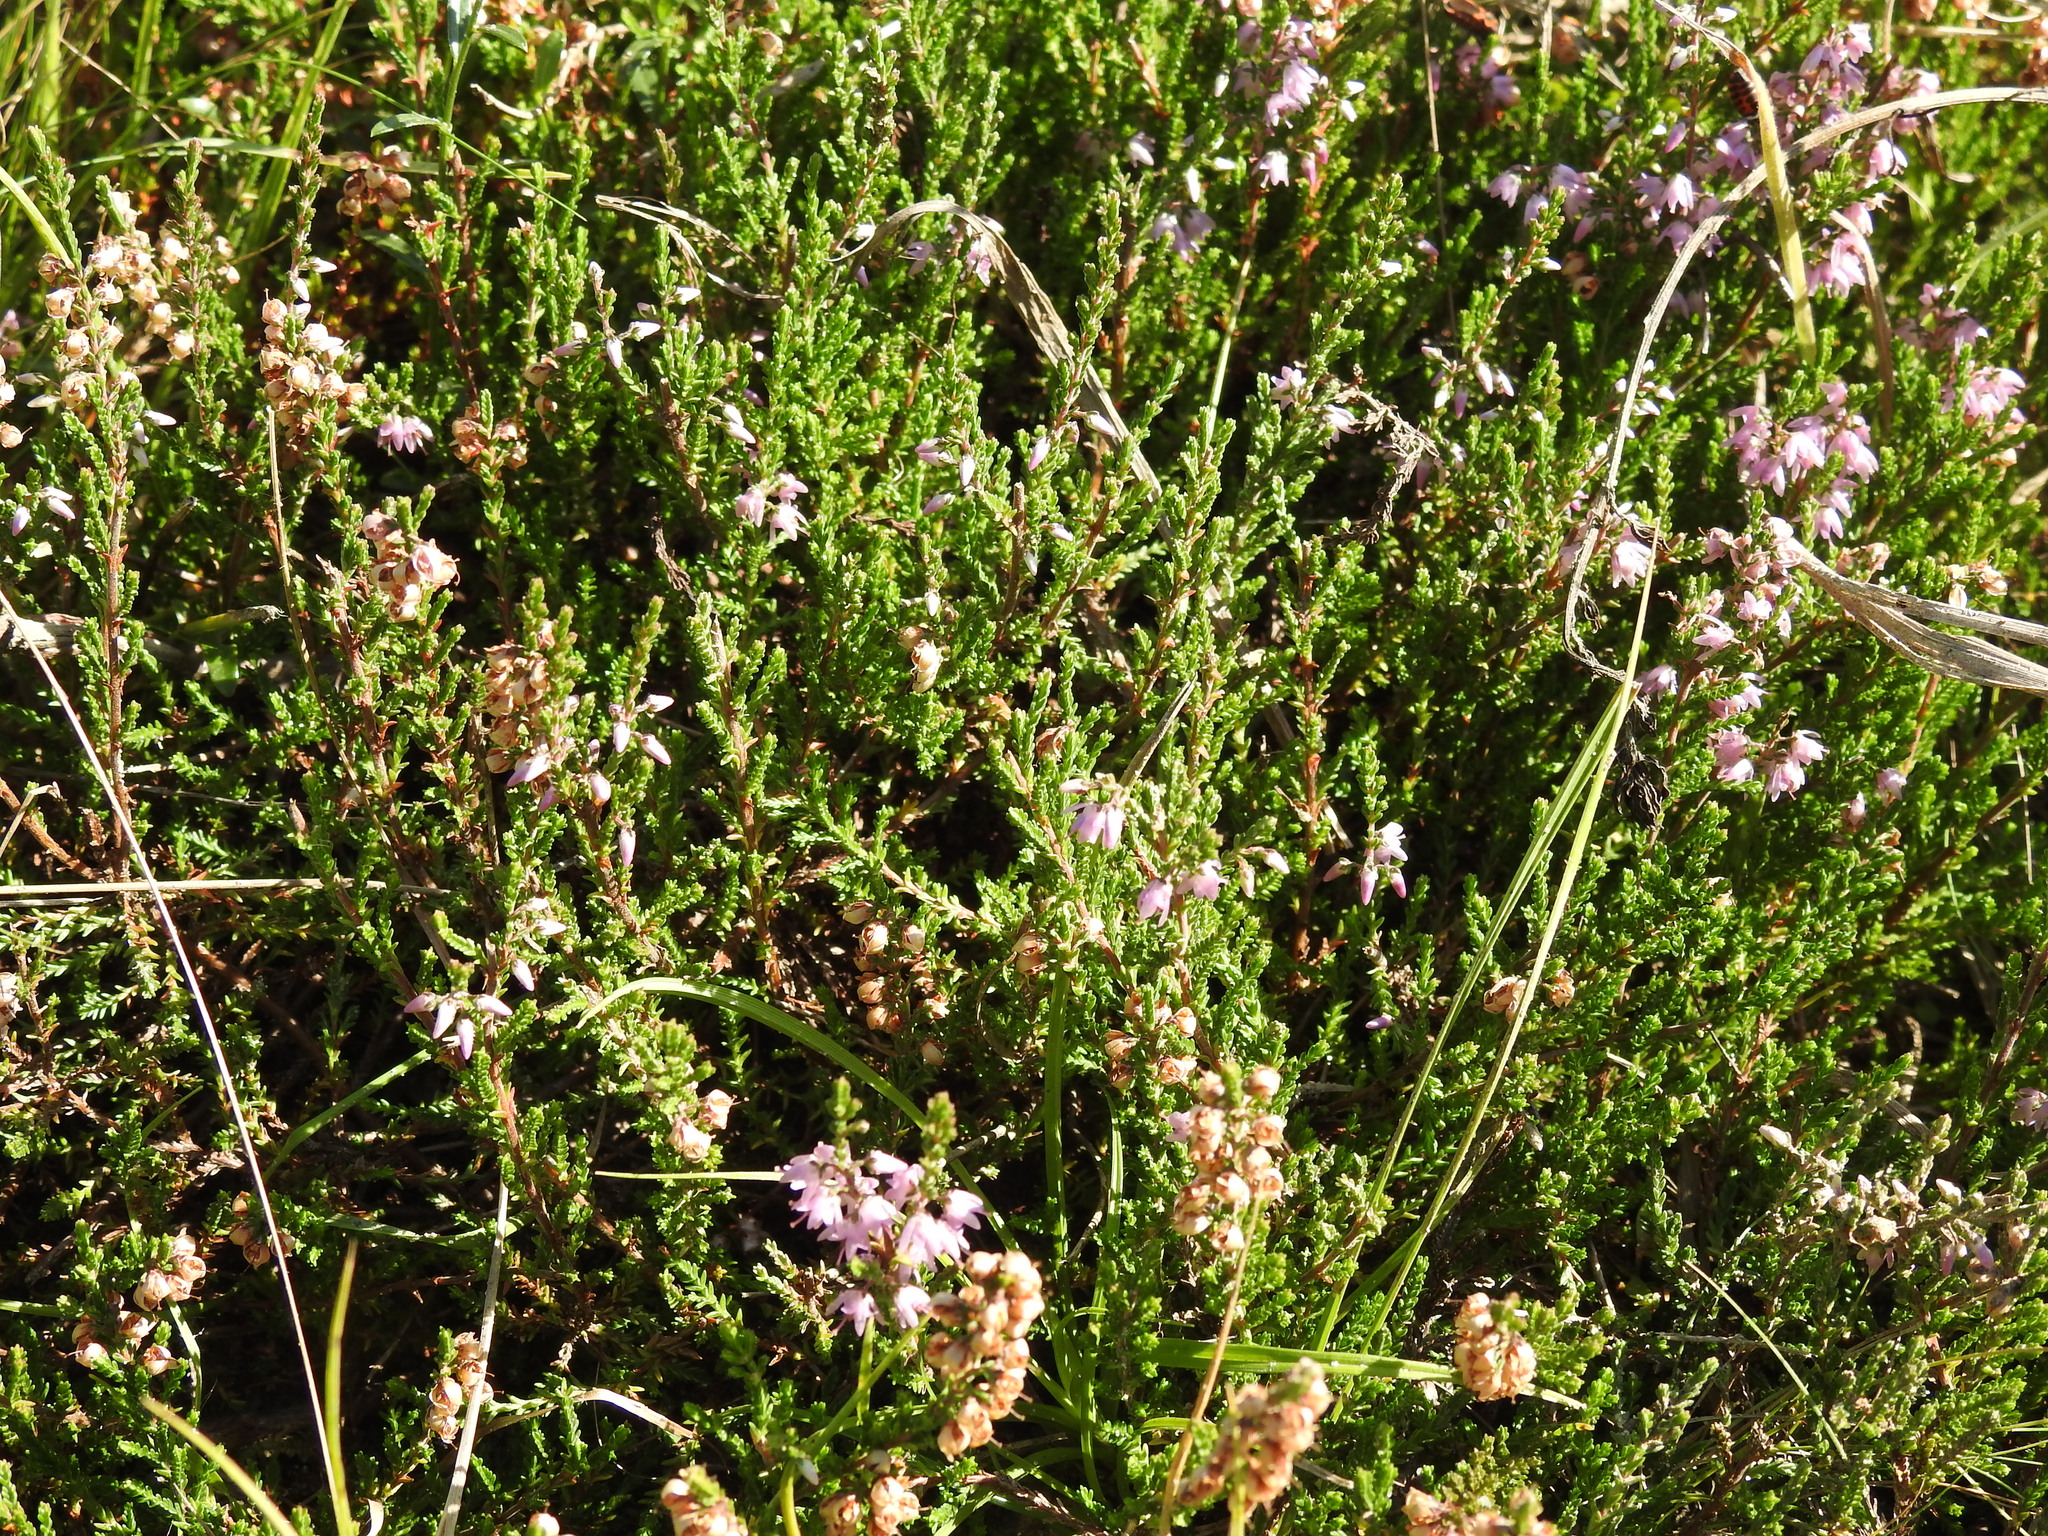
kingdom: Plantae
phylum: Tracheophyta
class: Magnoliopsida
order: Ericales
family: Ericaceae
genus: Calluna
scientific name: Calluna vulgaris
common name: Heather
